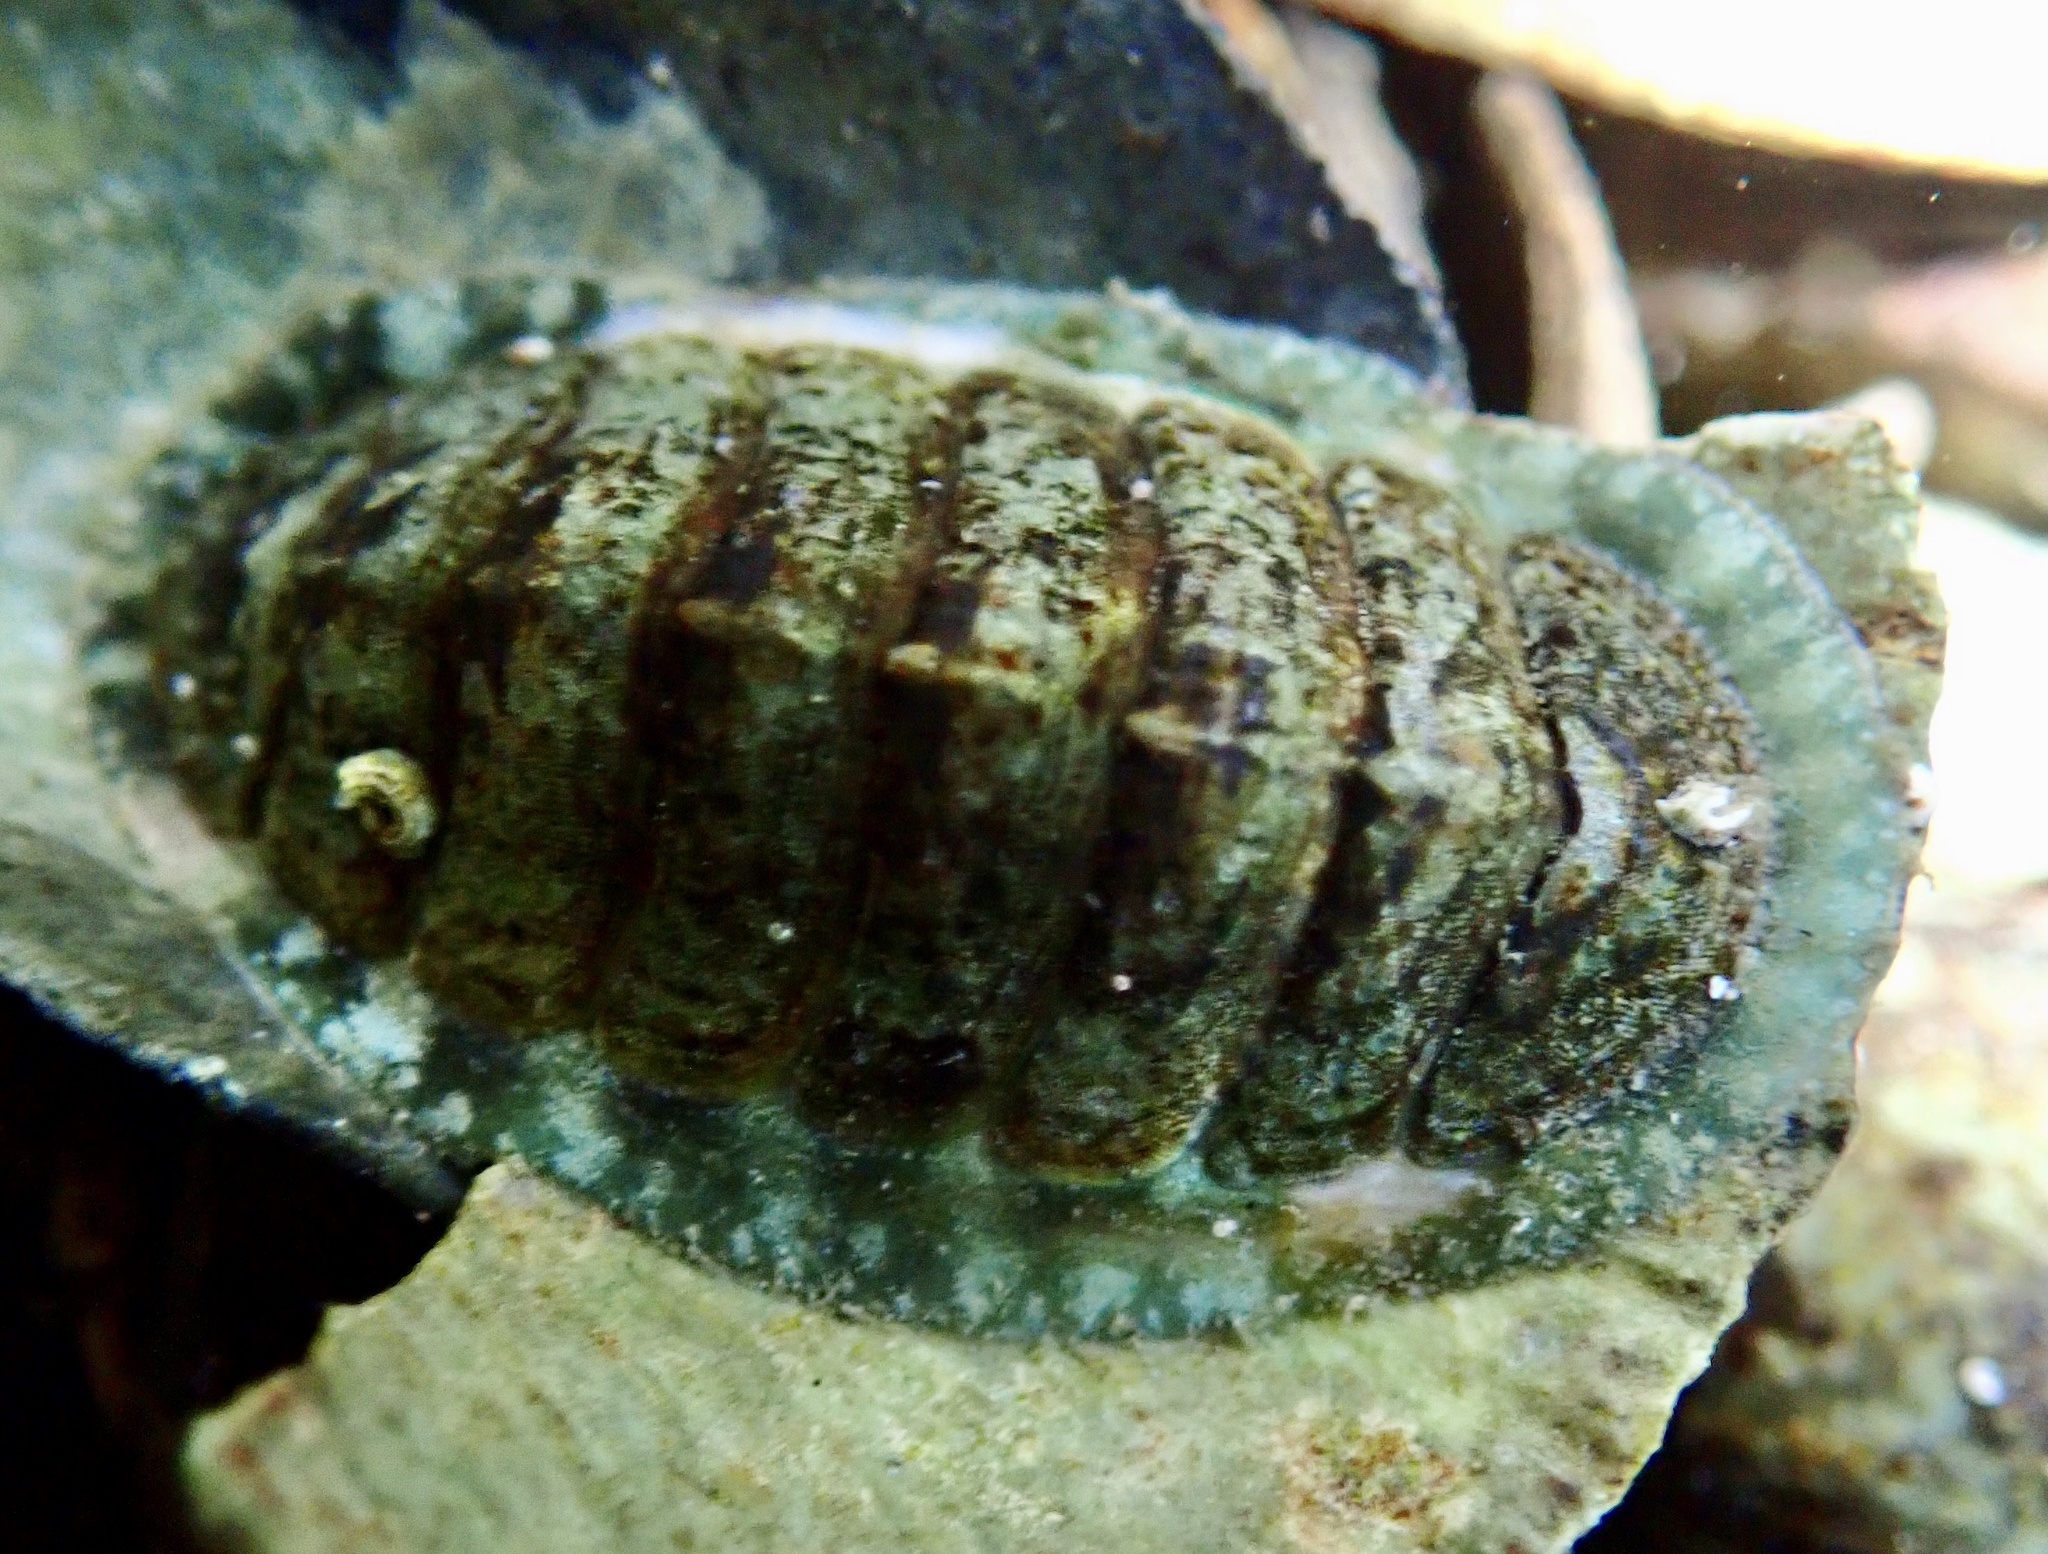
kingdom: Animalia
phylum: Mollusca
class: Polyplacophora
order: Chitonida
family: Tonicellidae
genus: Lepidochitona
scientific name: Lepidochitona cinerea
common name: Cinereous chiton
